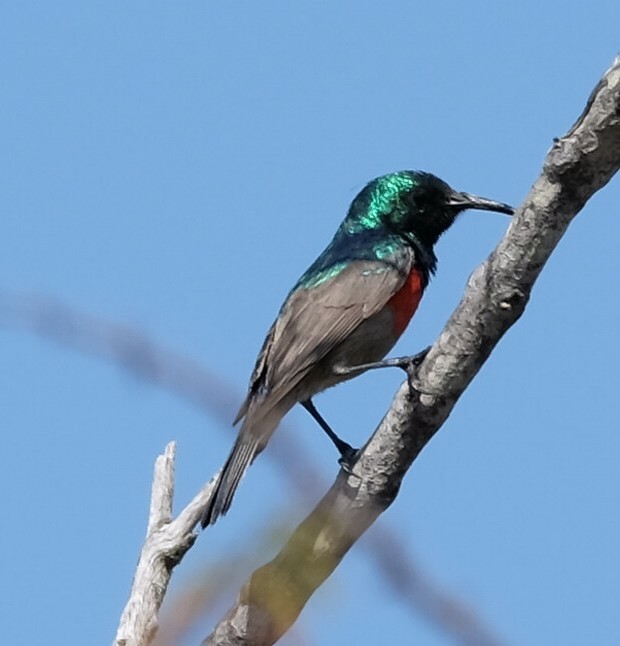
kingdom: Animalia
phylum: Chordata
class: Aves
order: Passeriformes
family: Nectariniidae
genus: Cinnyris
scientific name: Cinnyris afer
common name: Greater double-collared sunbird
